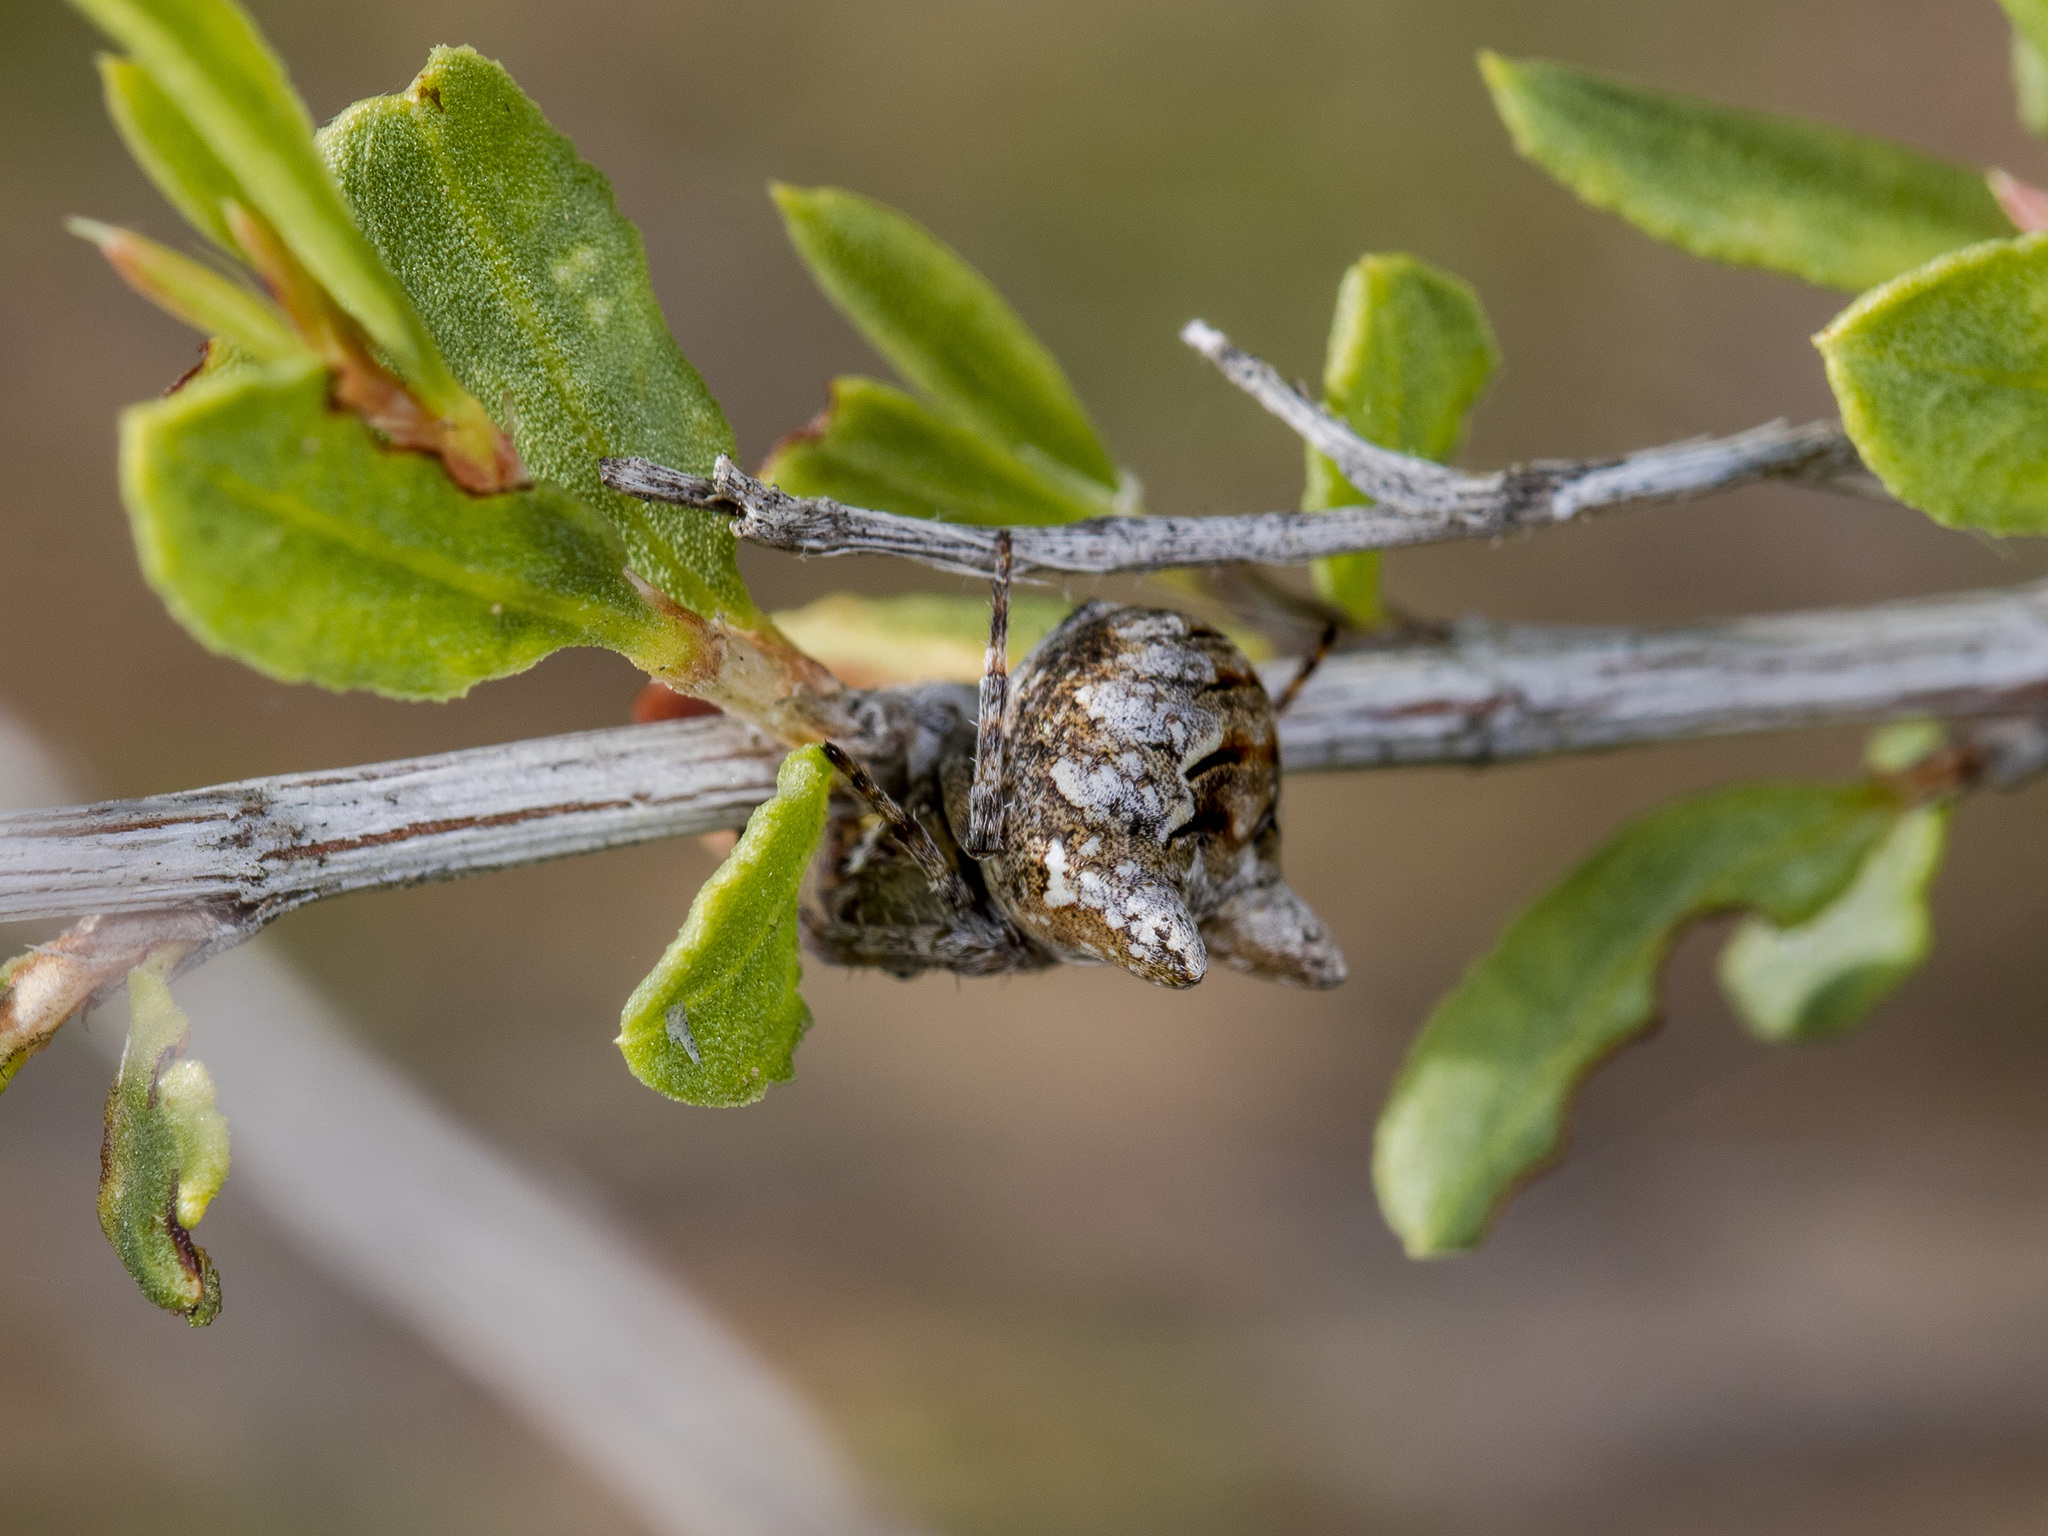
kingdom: Animalia
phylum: Arthropoda
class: Arachnida
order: Araneae
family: Araneidae
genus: Gibbaranea
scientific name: Gibbaranea ullrichi
